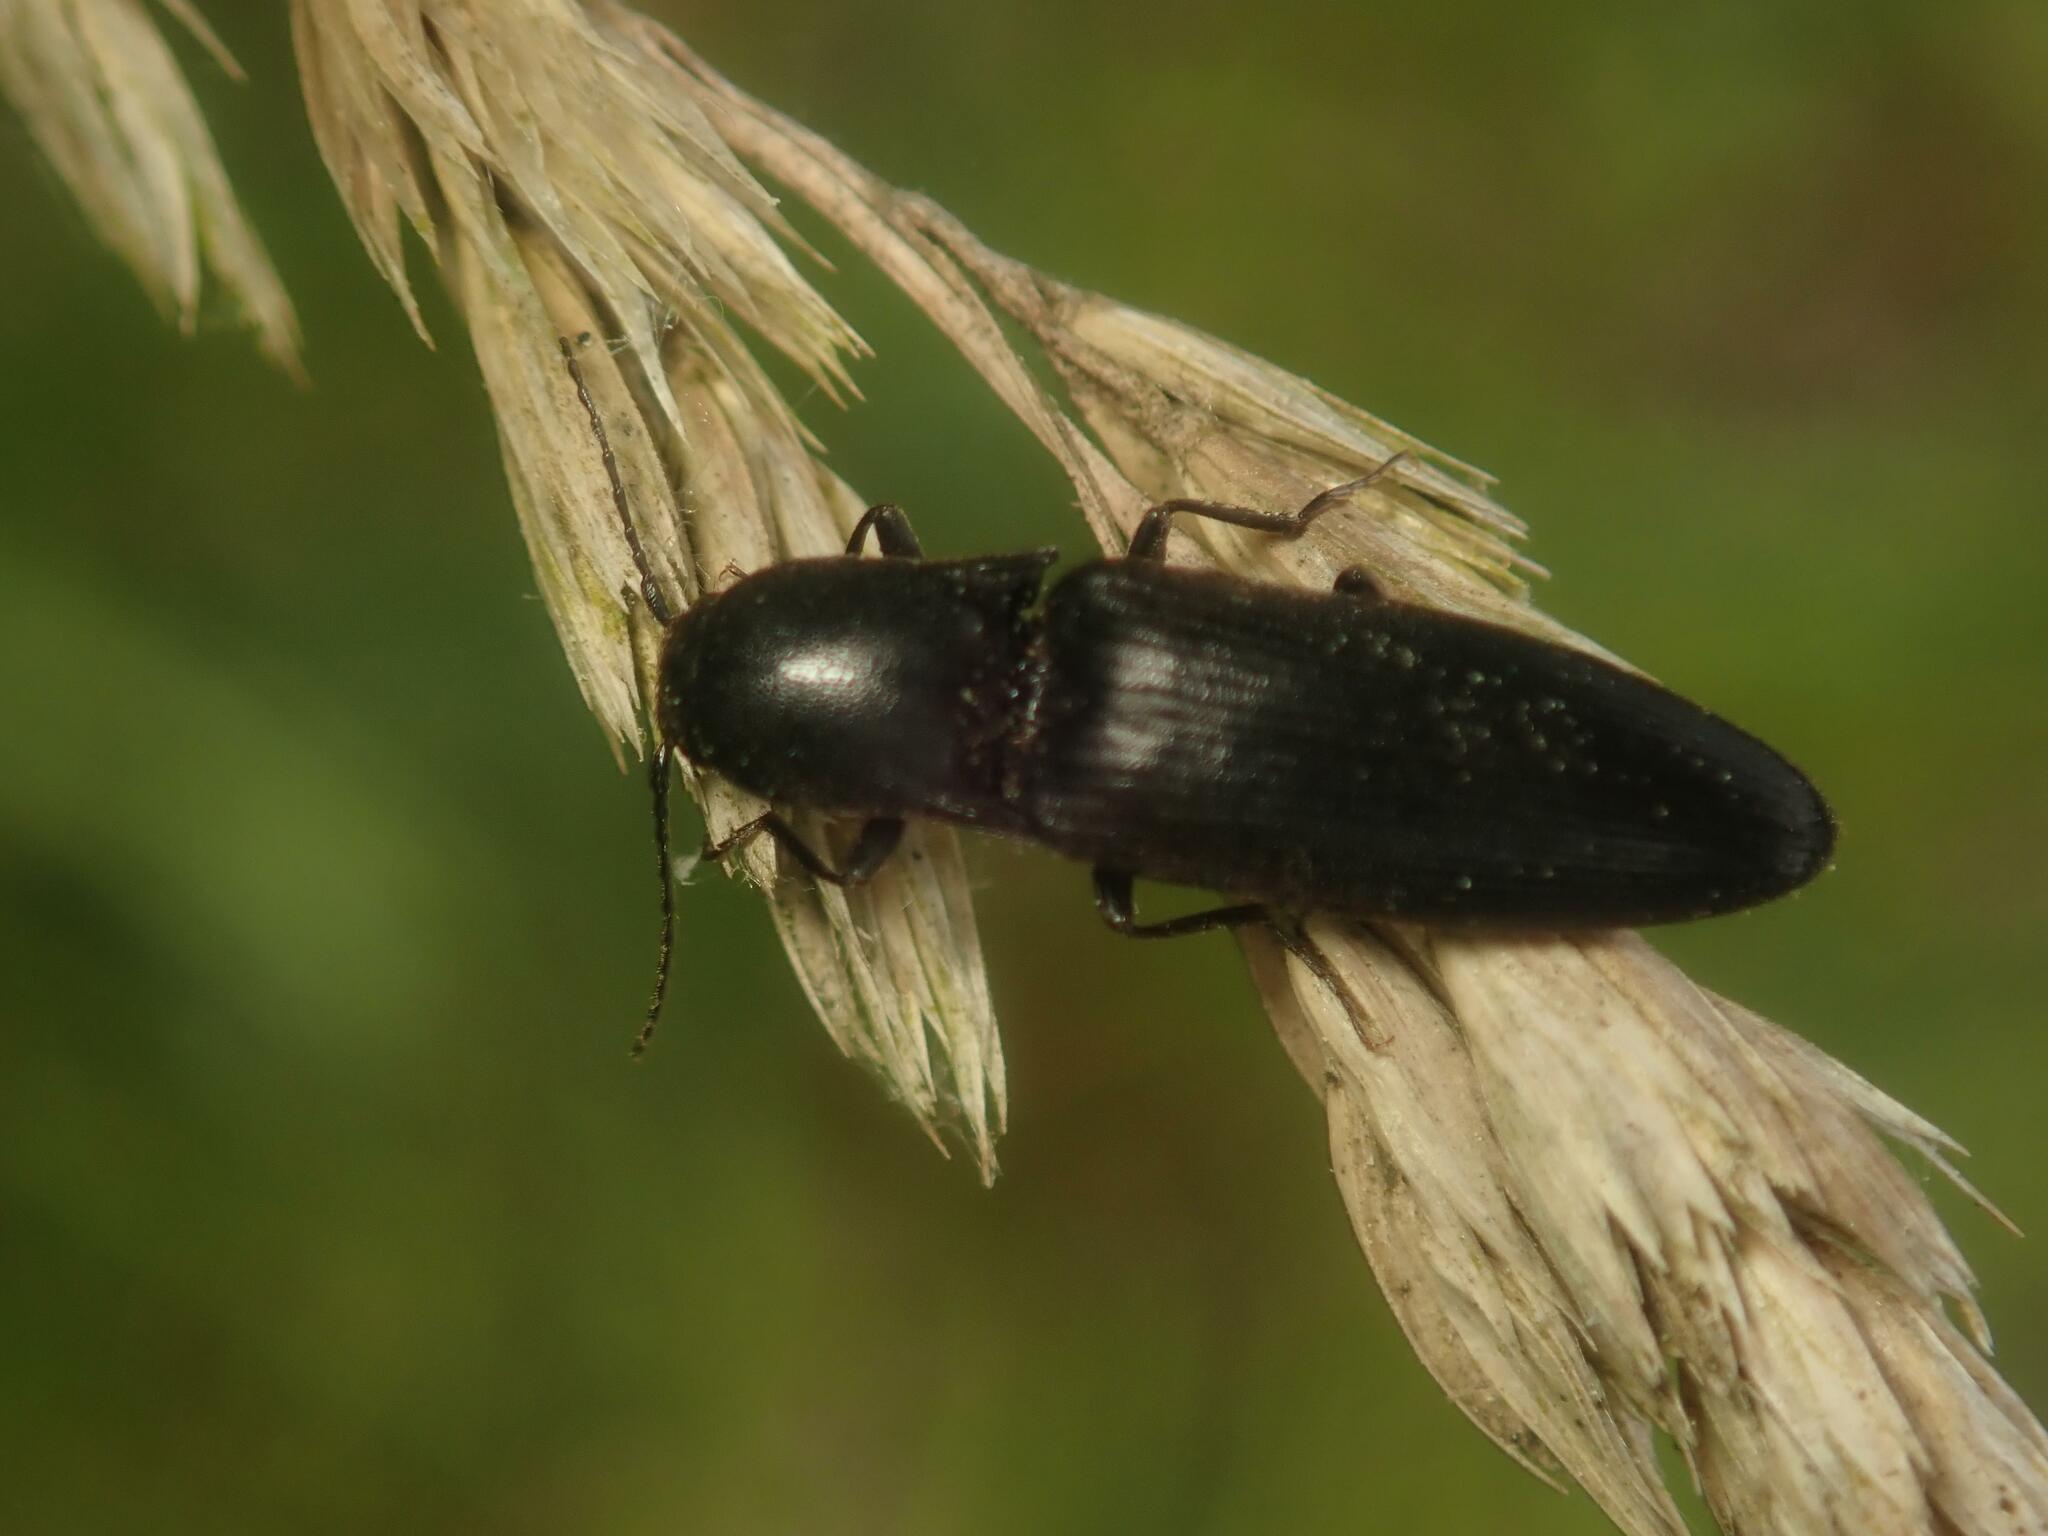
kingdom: Animalia
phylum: Arthropoda
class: Insecta
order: Coleoptera
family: Elateridae
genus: Ectinus
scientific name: Ectinus aterrimus
